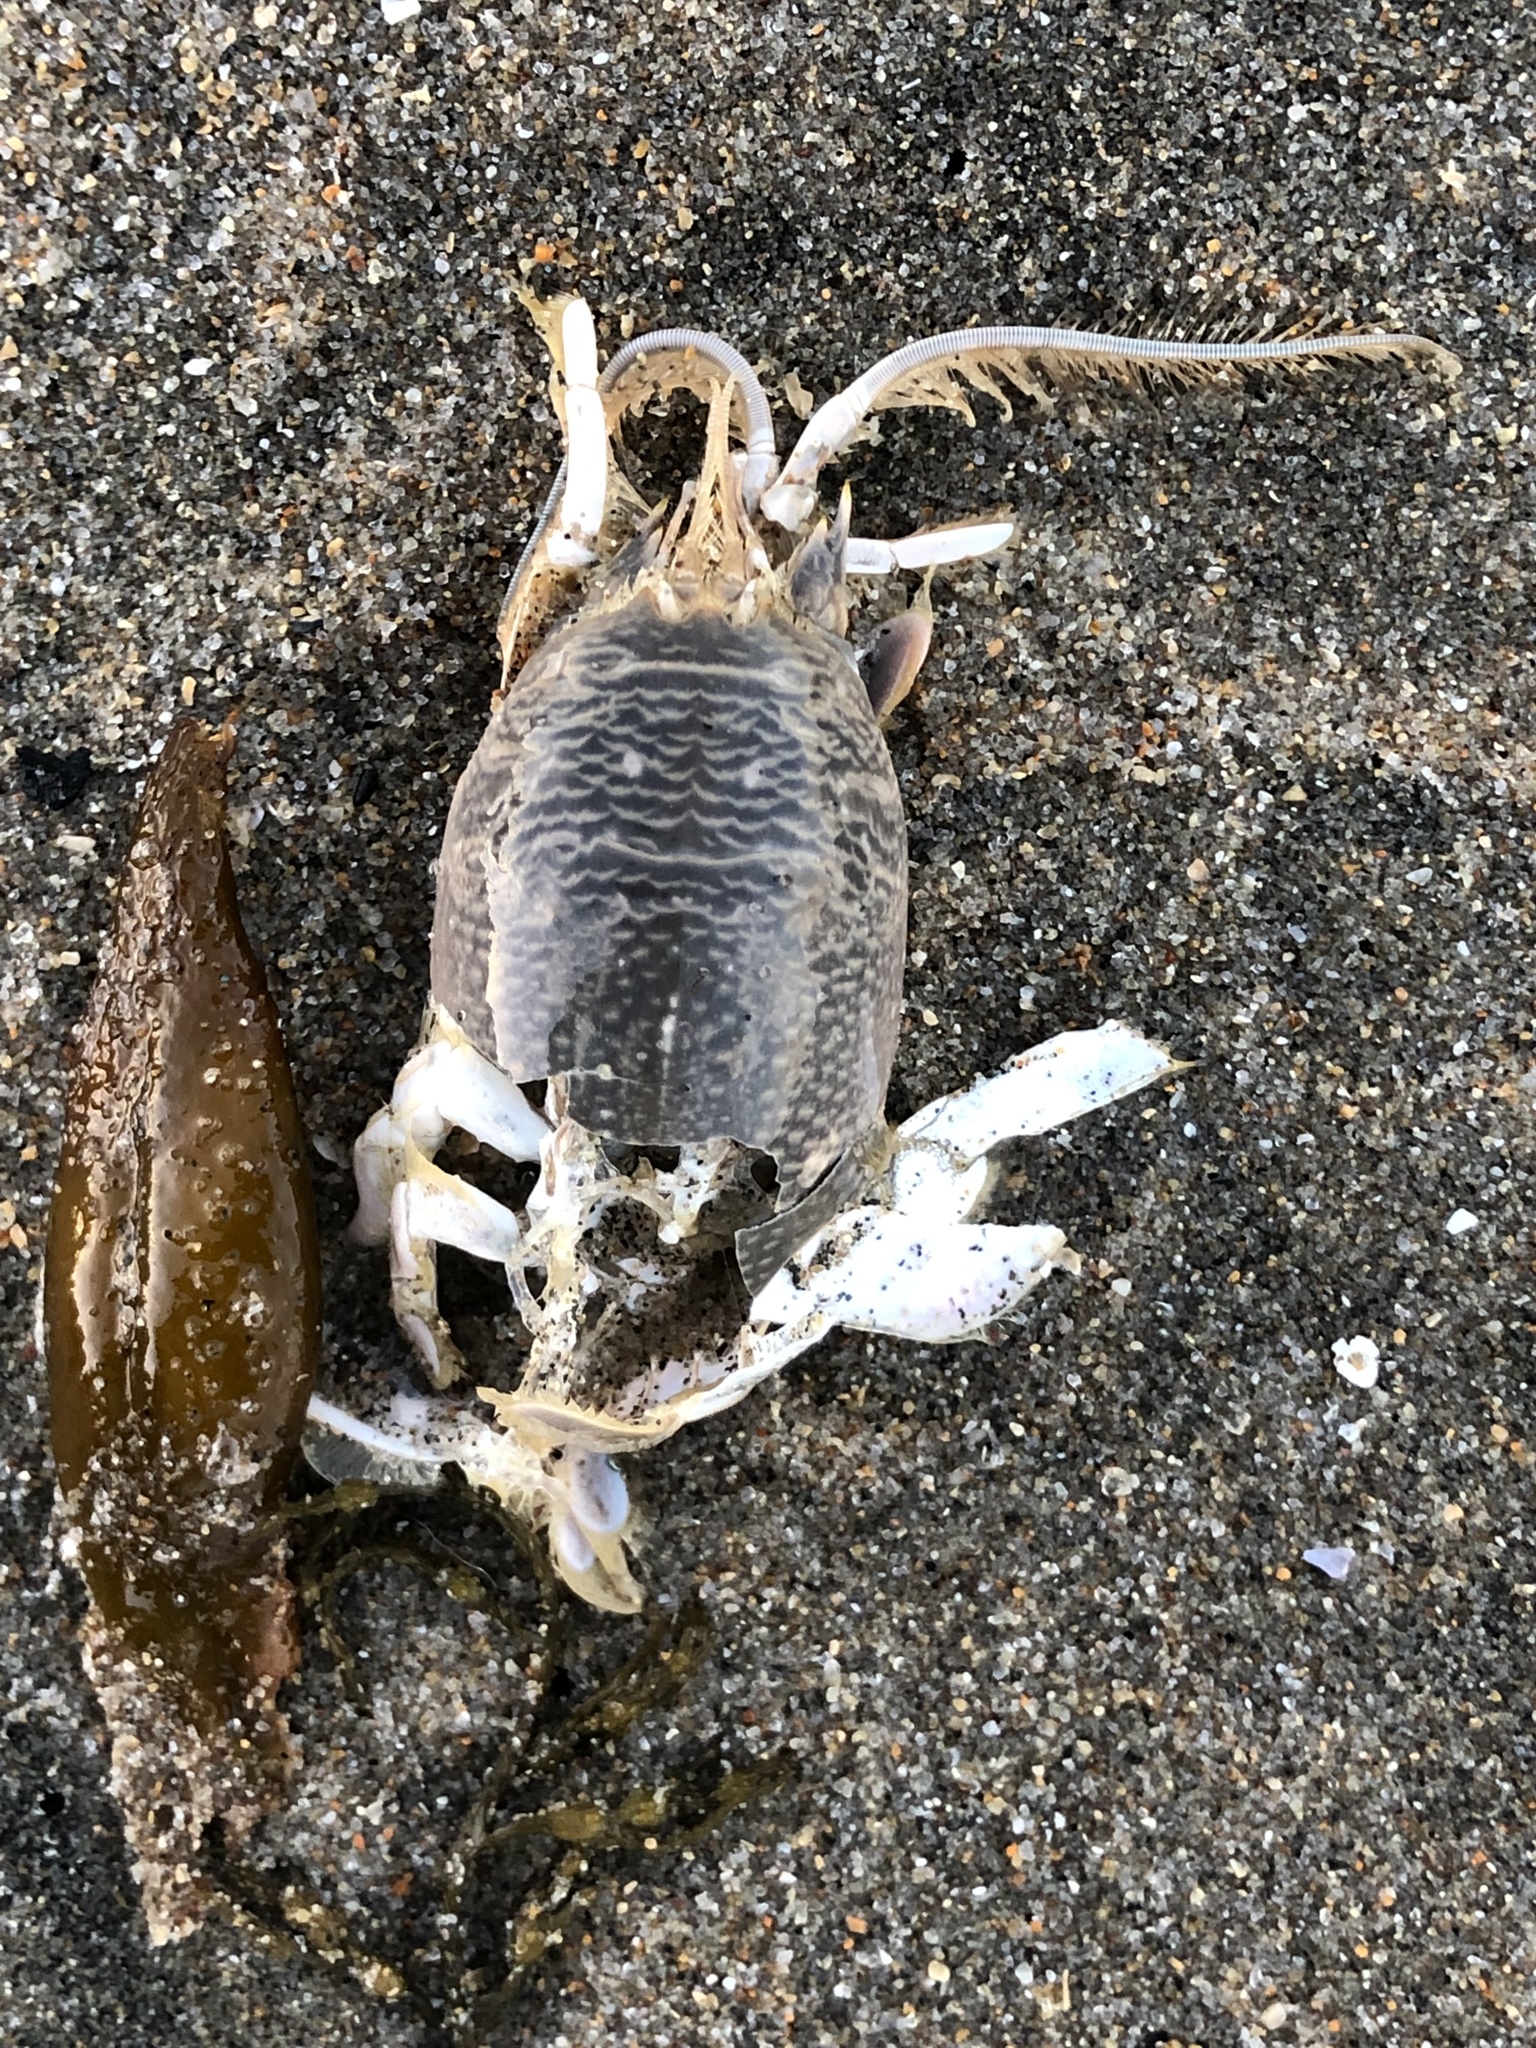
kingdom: Animalia
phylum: Arthropoda
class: Malacostraca
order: Decapoda
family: Hippidae
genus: Emerita
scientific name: Emerita analoga
